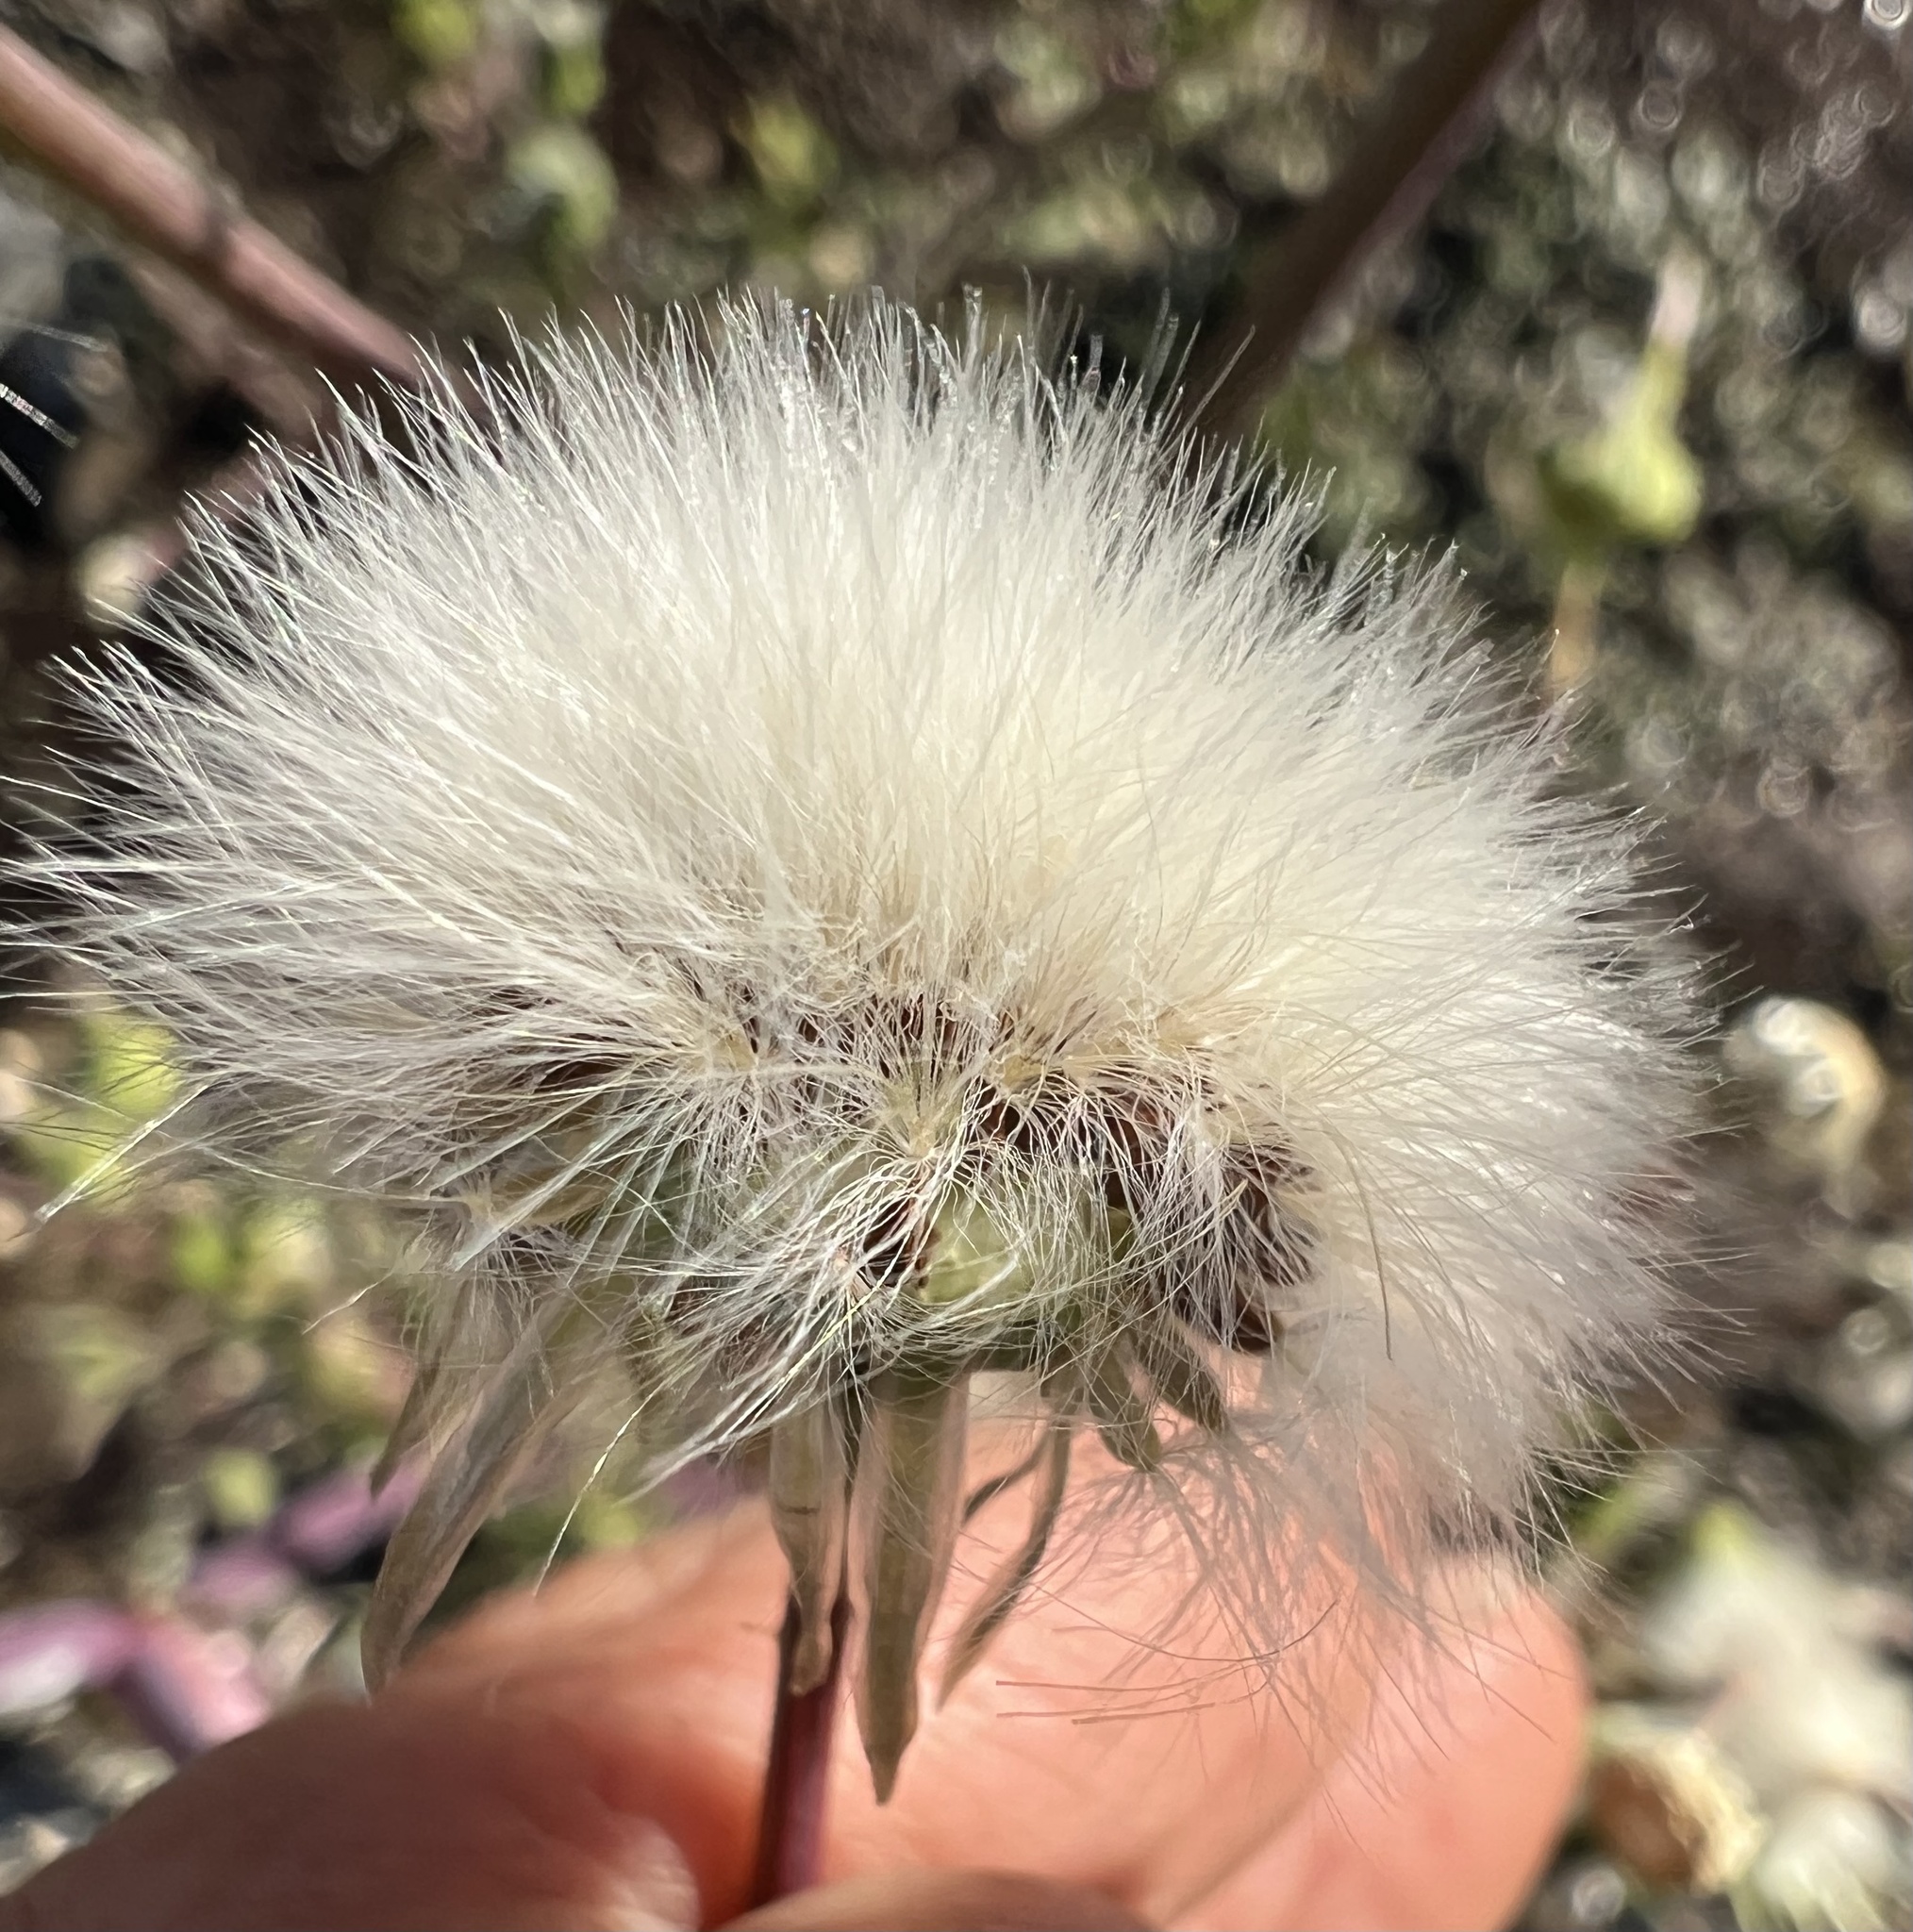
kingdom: Plantae
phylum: Tracheophyta
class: Magnoliopsida
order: Asterales
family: Asteraceae
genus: Sonchus
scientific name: Sonchus asper
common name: Prickly sow-thistle
